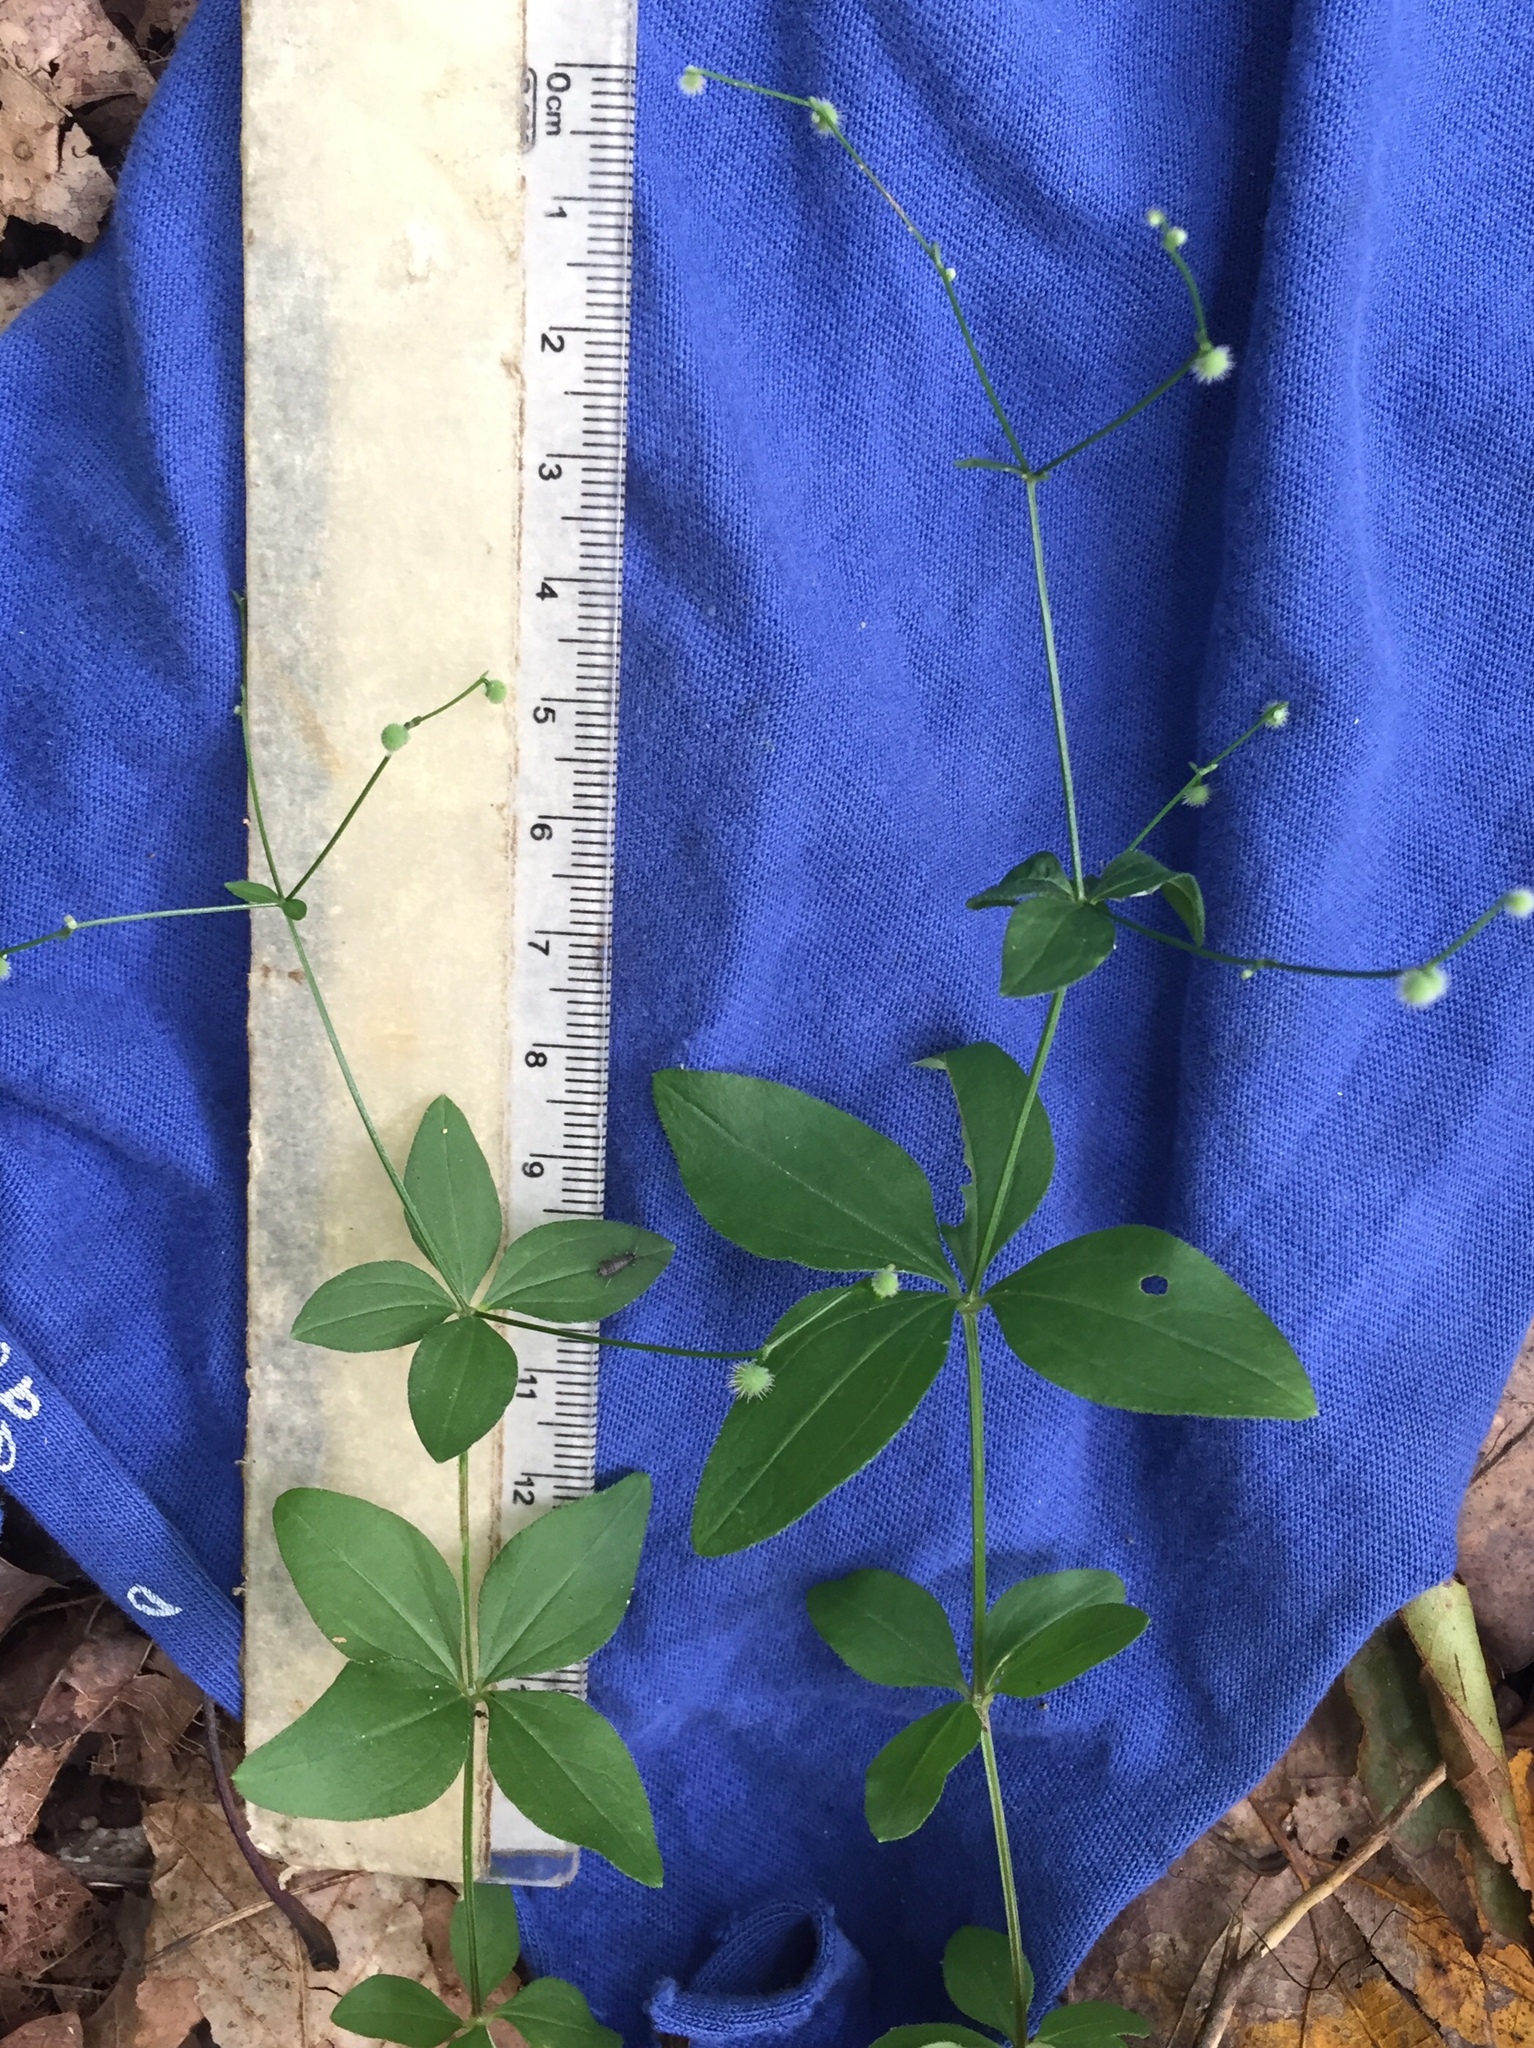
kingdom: Plantae
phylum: Tracheophyta
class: Magnoliopsida
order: Gentianales
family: Rubiaceae
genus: Galium
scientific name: Galium circaezans
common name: Forest bedstraw
